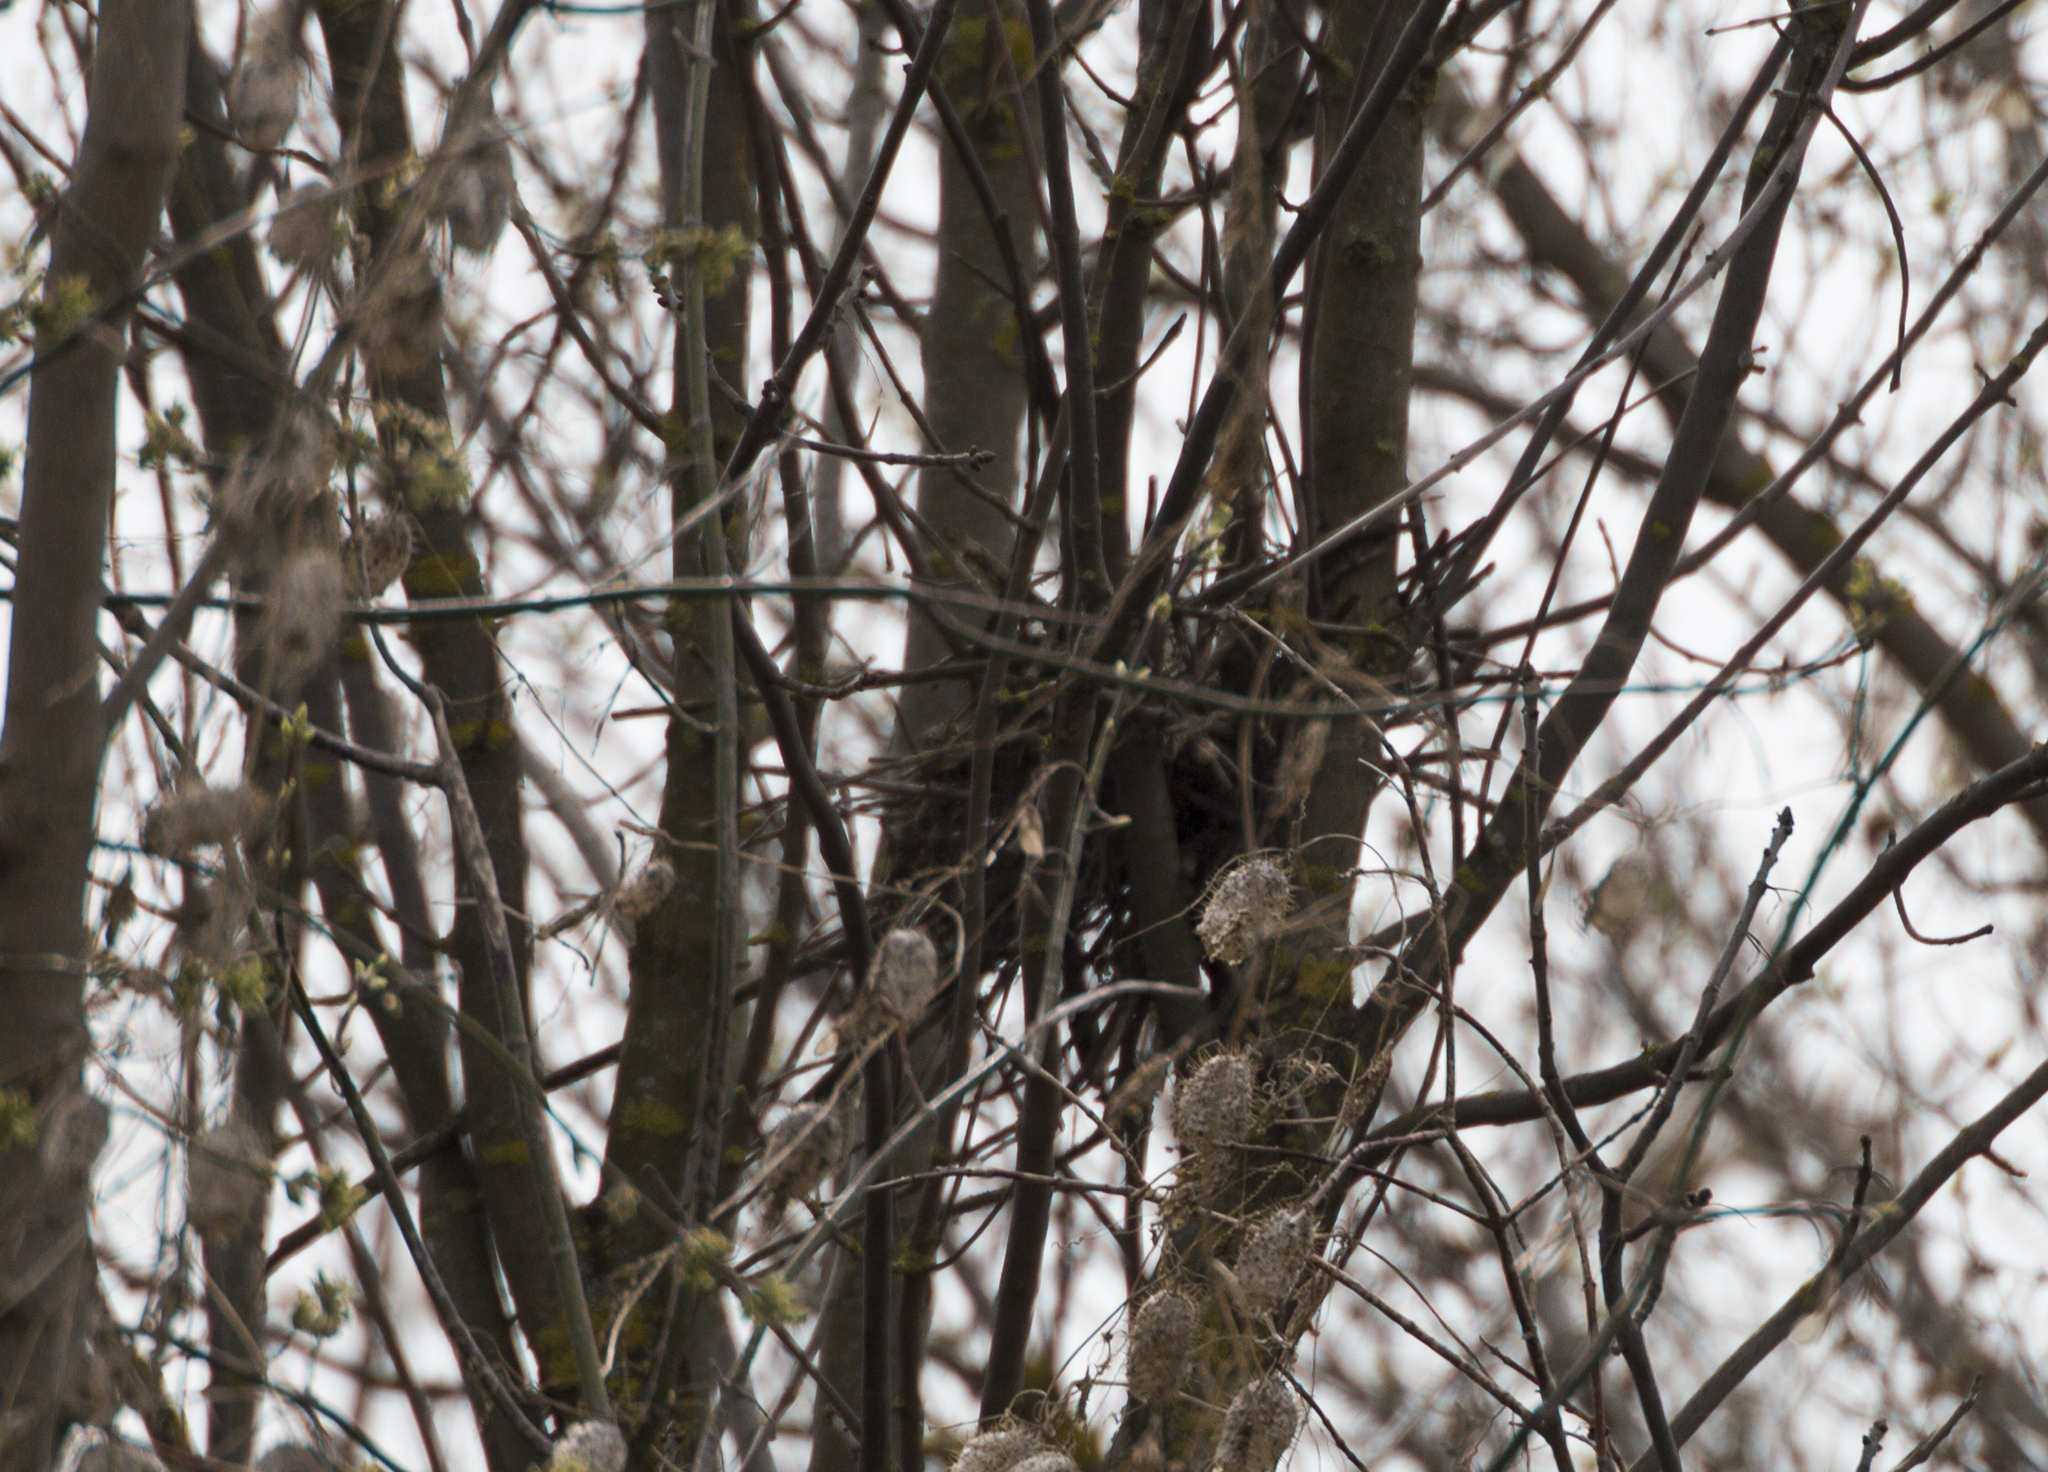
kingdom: Plantae
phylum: Tracheophyta
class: Magnoliopsida
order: Cucurbitales
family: Cucurbitaceae
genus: Echinocystis
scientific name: Echinocystis lobata
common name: Wild cucumber
